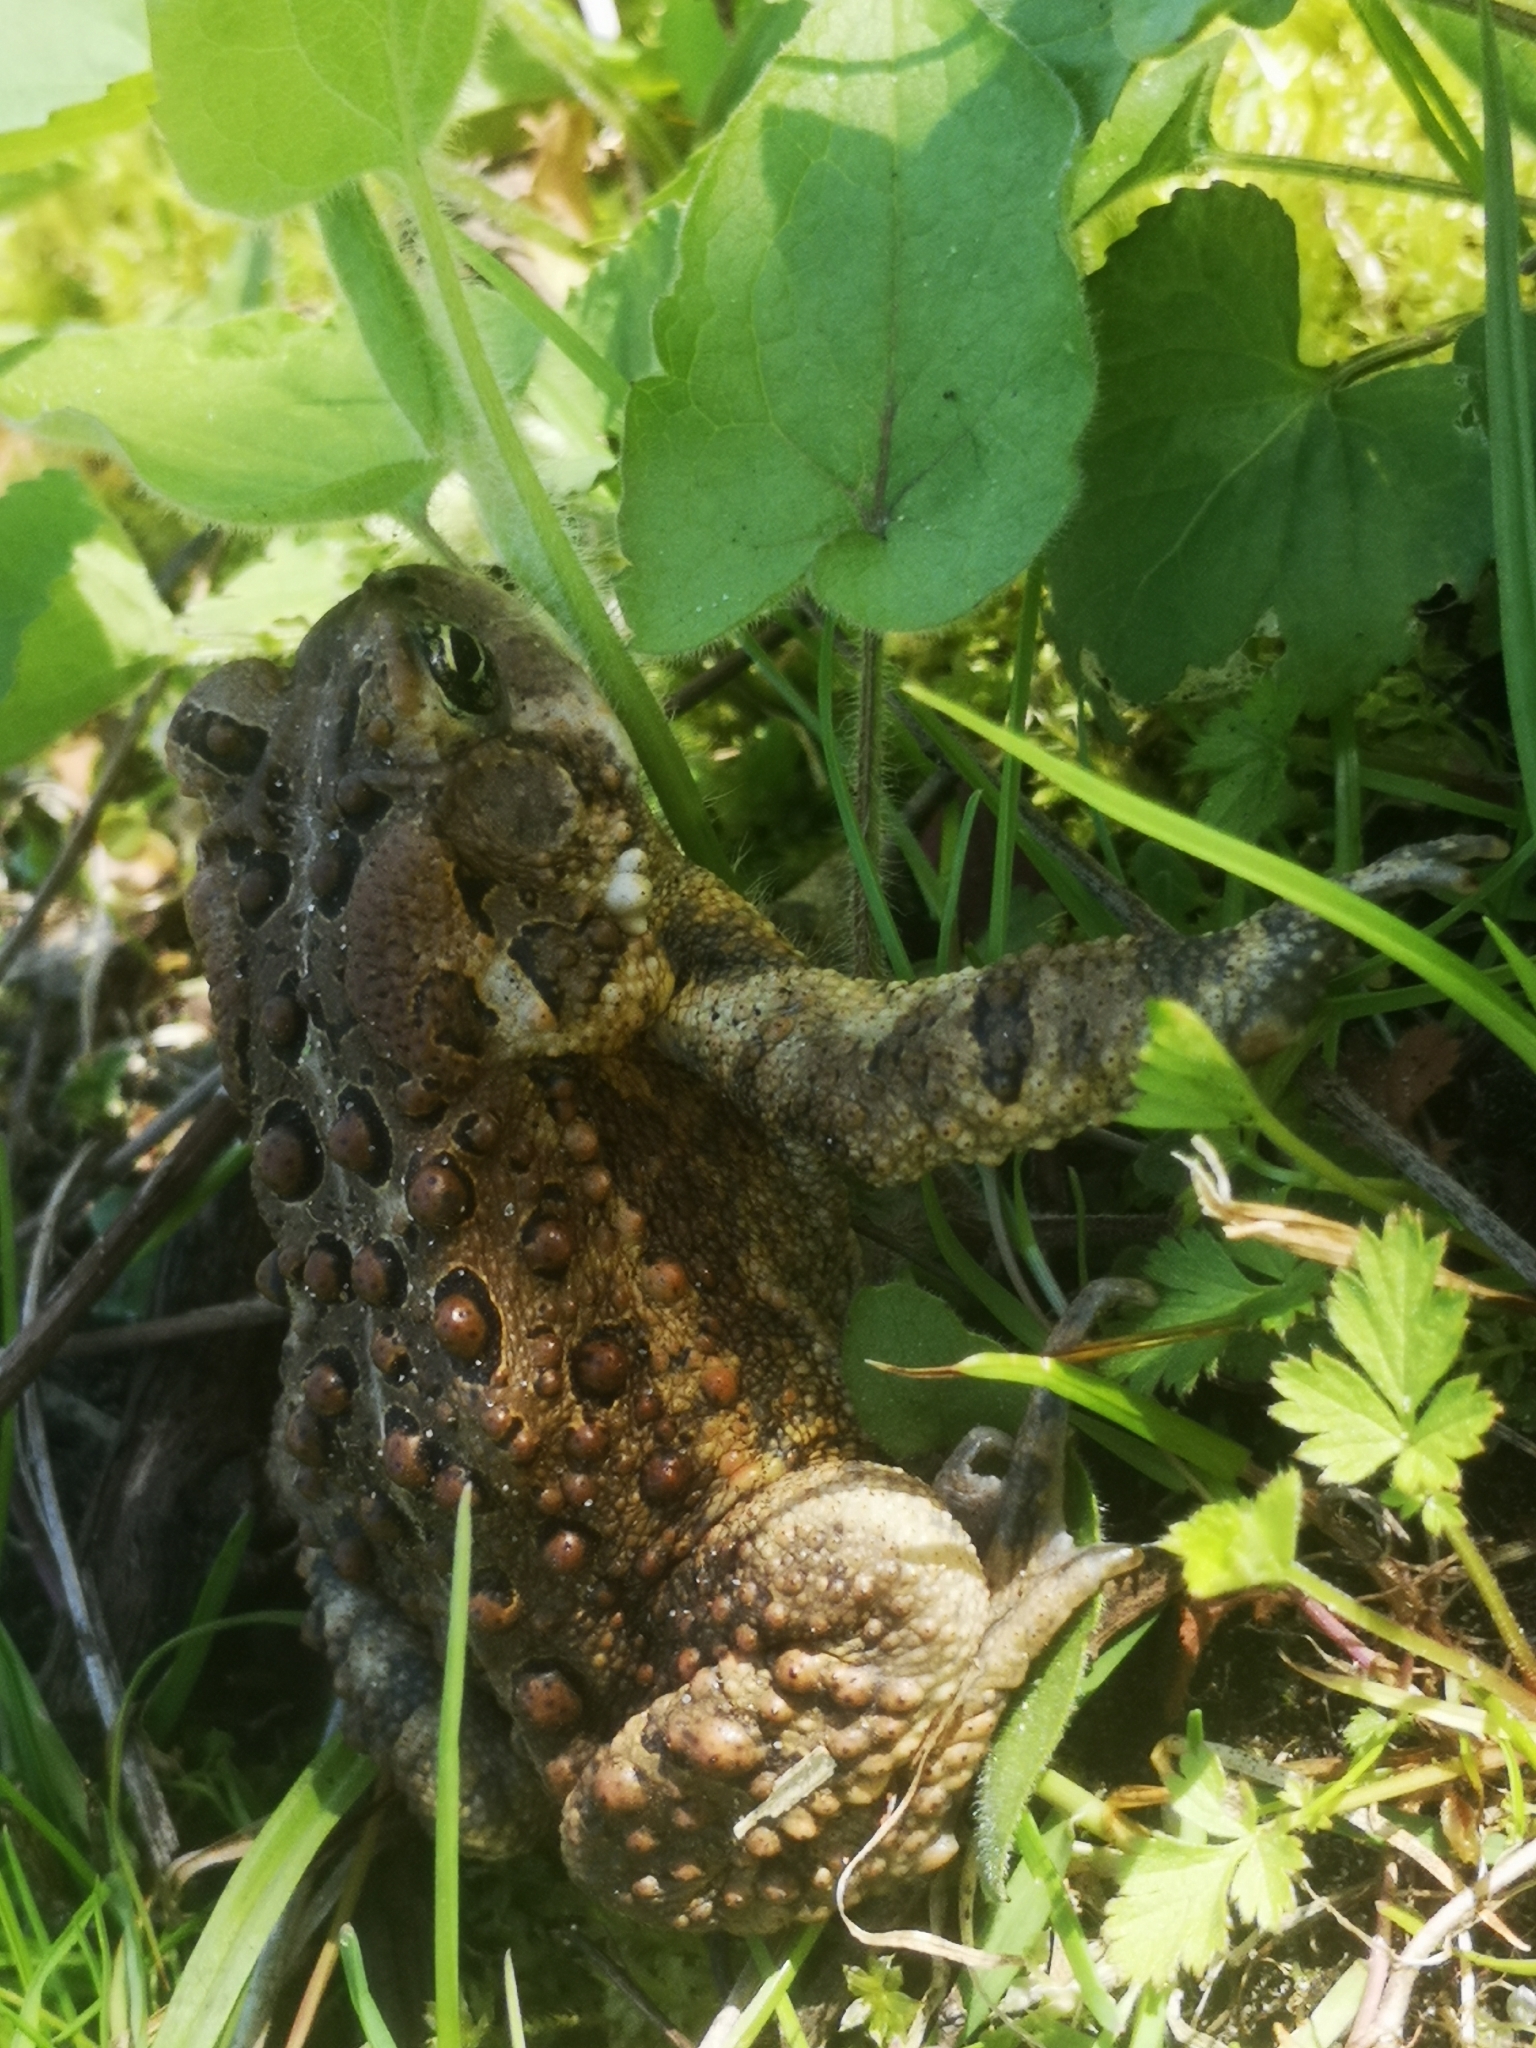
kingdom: Animalia
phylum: Chordata
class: Amphibia
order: Anura
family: Bufonidae
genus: Anaxyrus
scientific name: Anaxyrus americanus
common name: American toad
